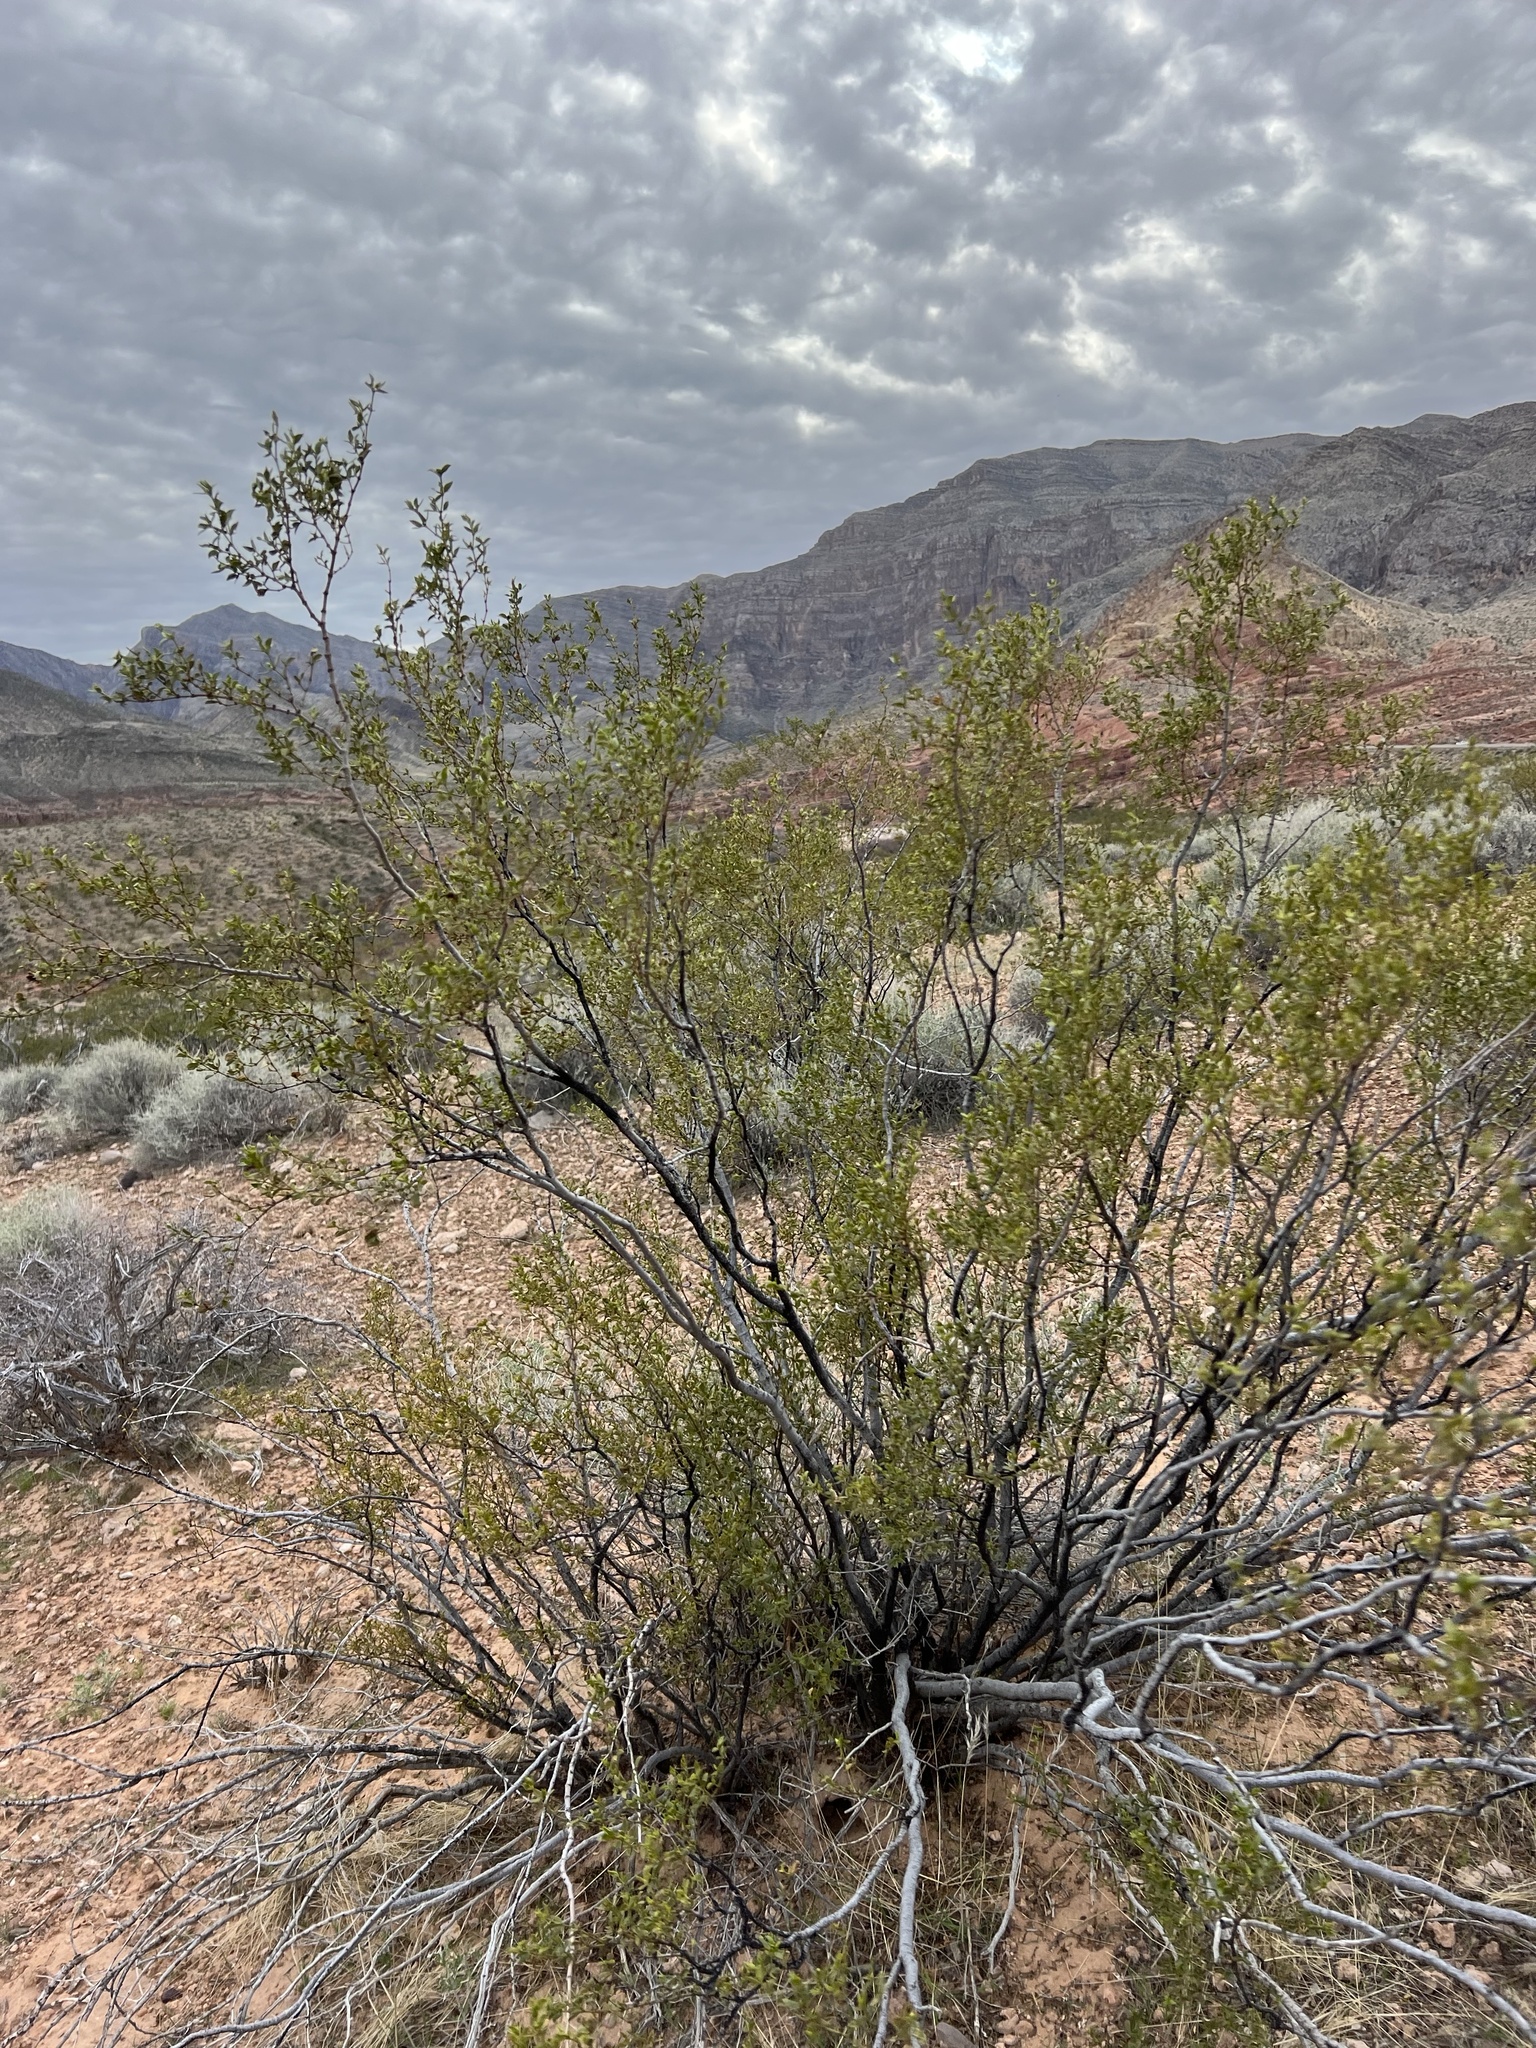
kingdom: Plantae
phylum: Tracheophyta
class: Magnoliopsida
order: Zygophyllales
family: Zygophyllaceae
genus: Larrea
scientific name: Larrea tridentata
